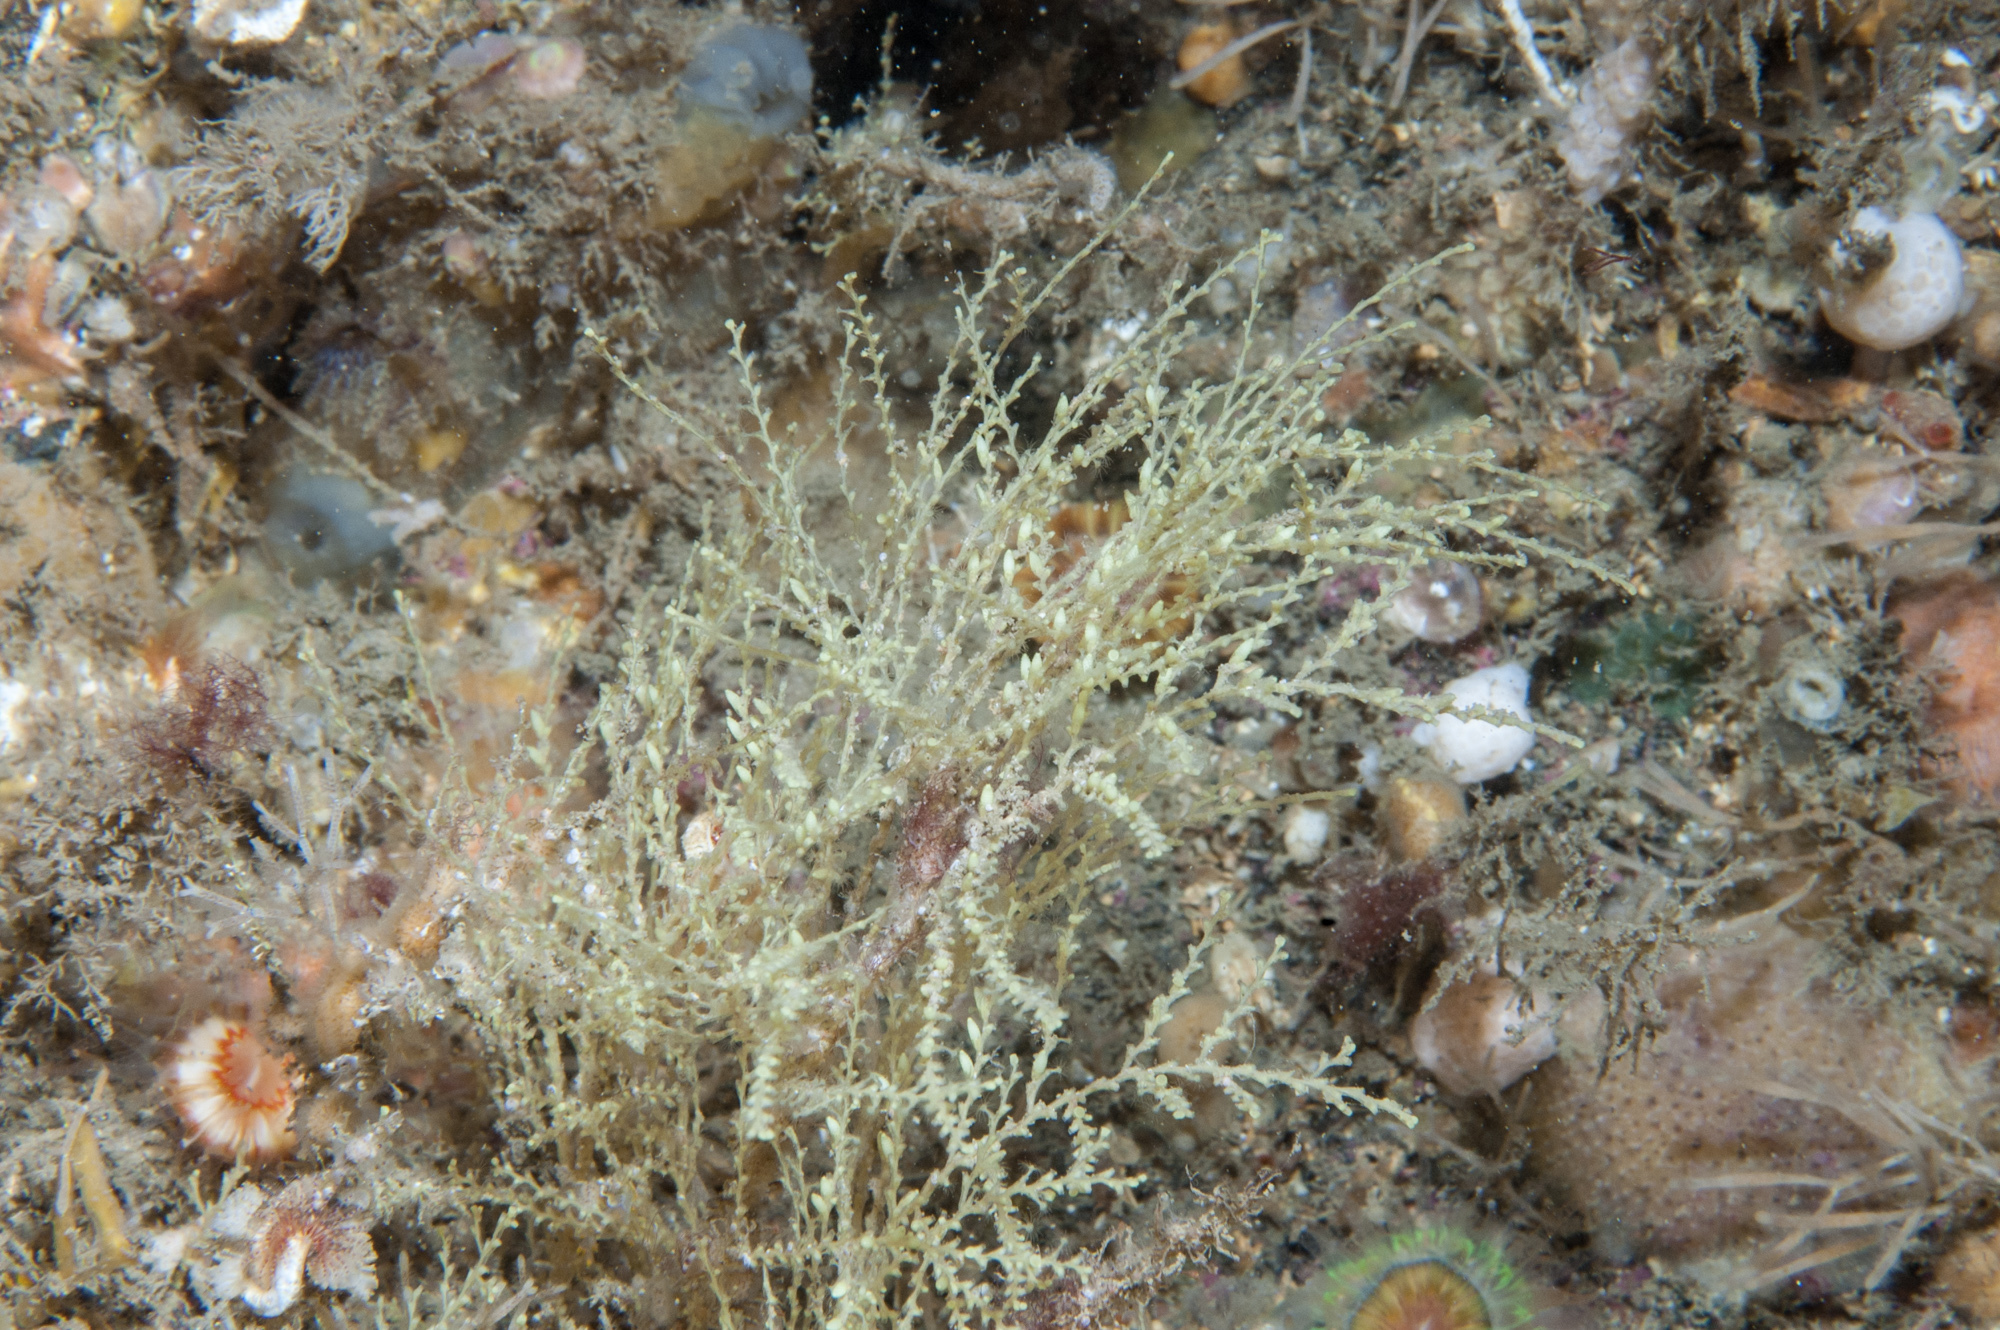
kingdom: Animalia
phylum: Cnidaria
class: Hydrozoa
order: Leptothecata
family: Sertularellidae
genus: Sertularella
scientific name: Sertularella polyzonias
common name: Great tooth hydroid
